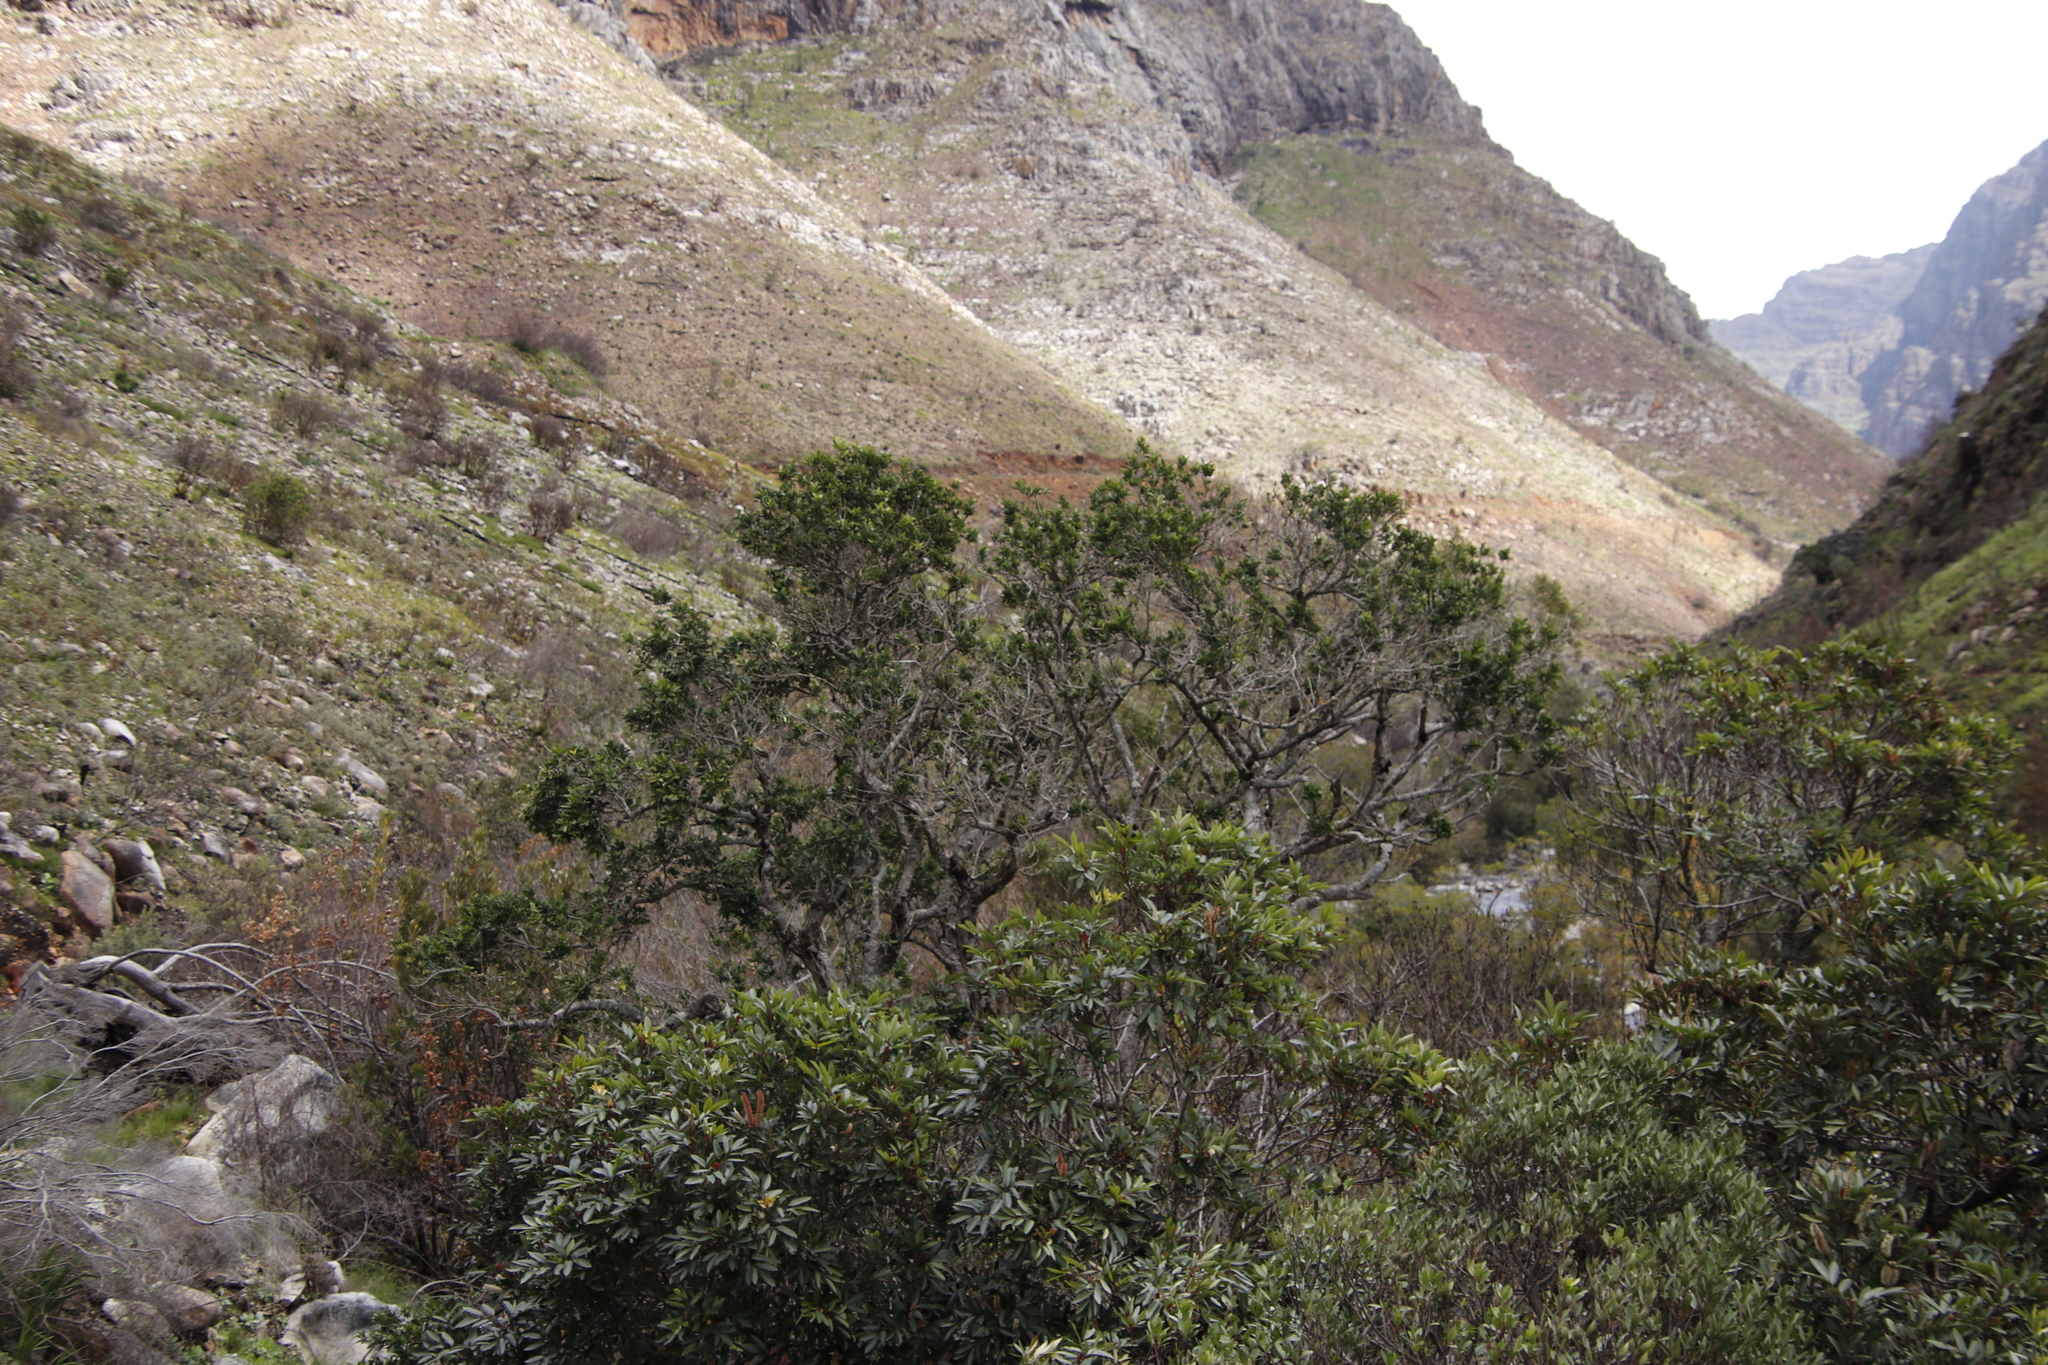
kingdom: Plantae
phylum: Tracheophyta
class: Magnoliopsida
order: Aquifoliales
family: Aquifoliaceae
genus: Ilex
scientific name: Ilex mitis
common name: African holly
